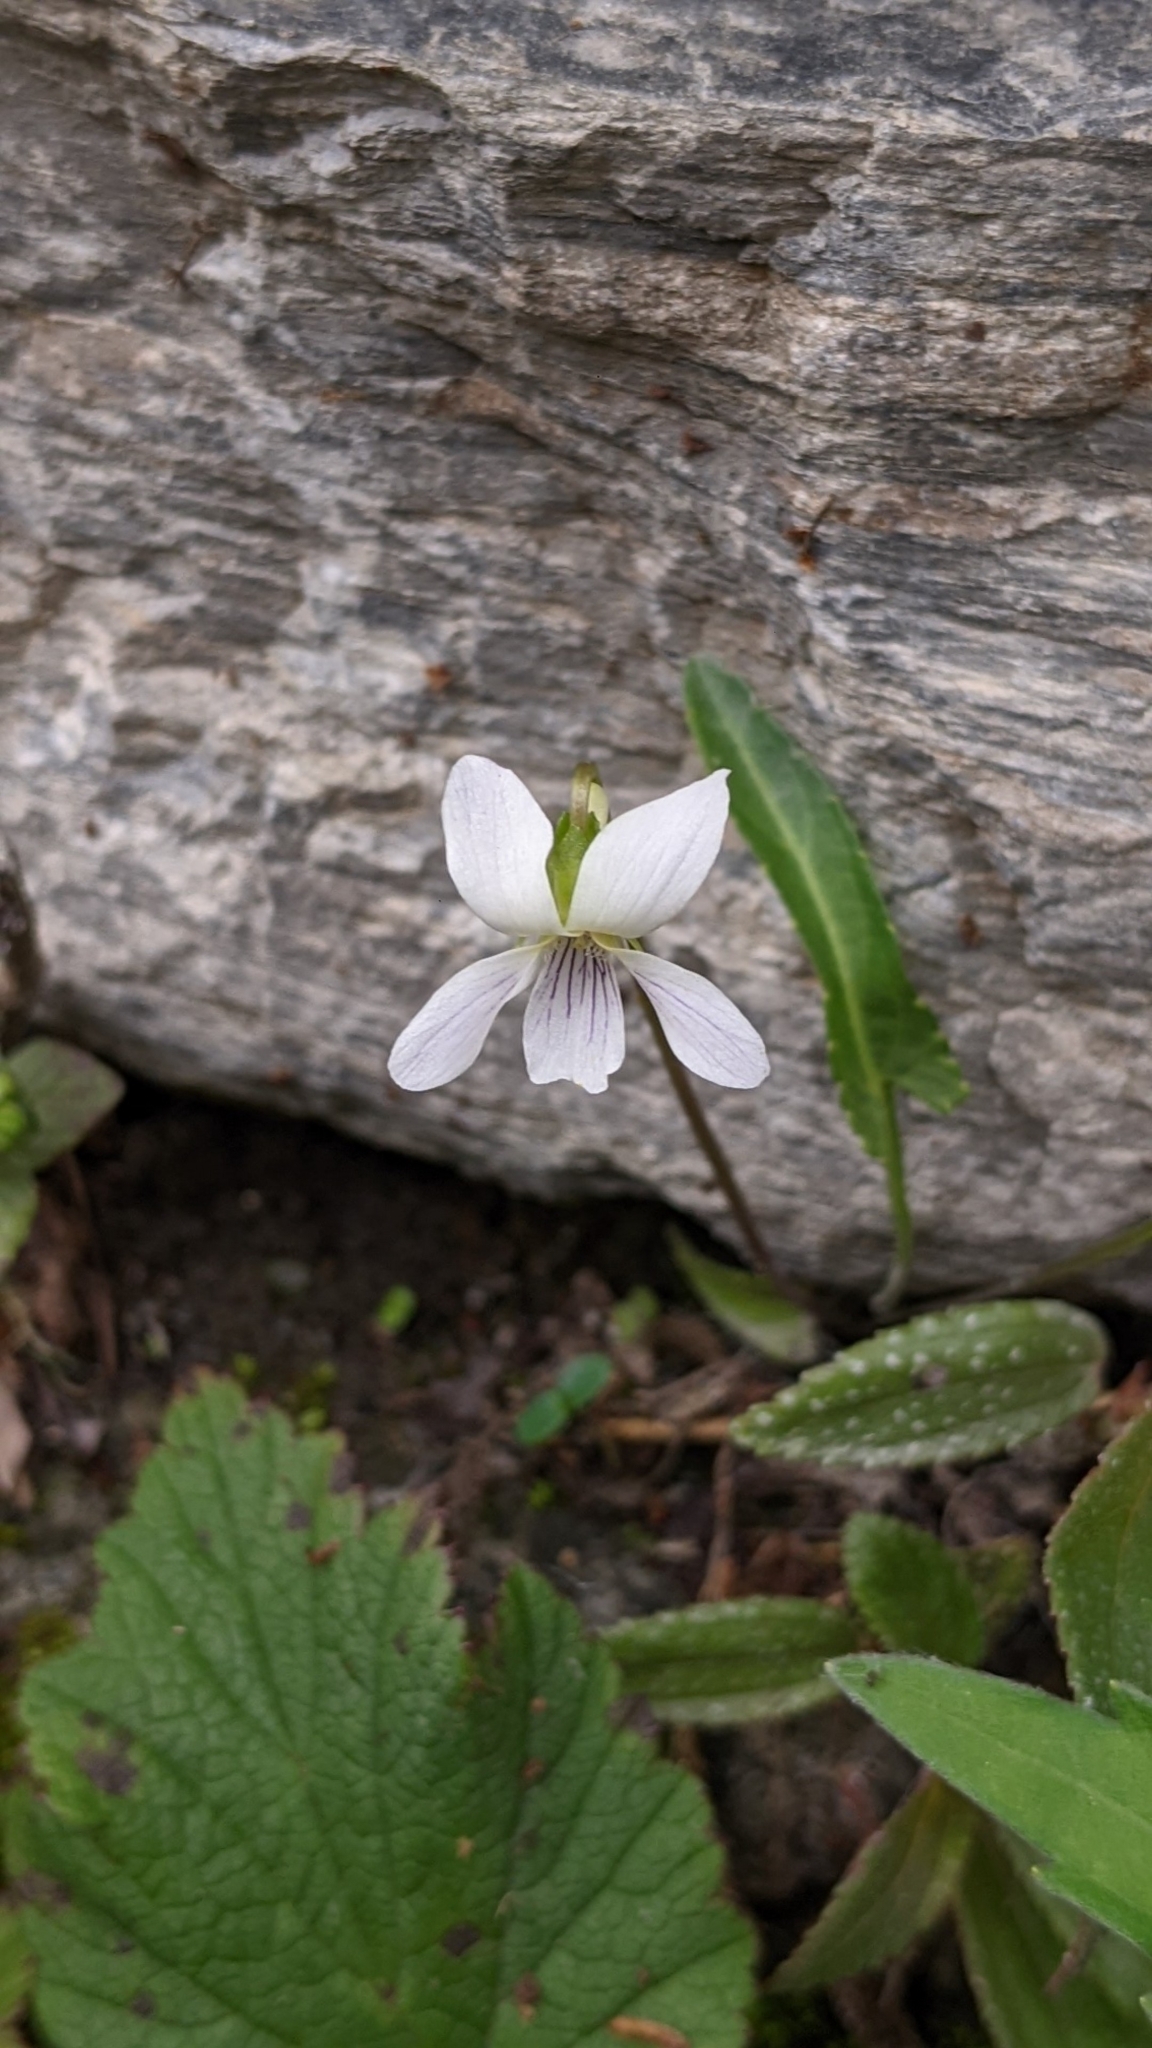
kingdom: Plantae
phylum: Tracheophyta
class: Magnoliopsida
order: Malpighiales
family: Violaceae
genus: Viola
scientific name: Viola adenothrix
